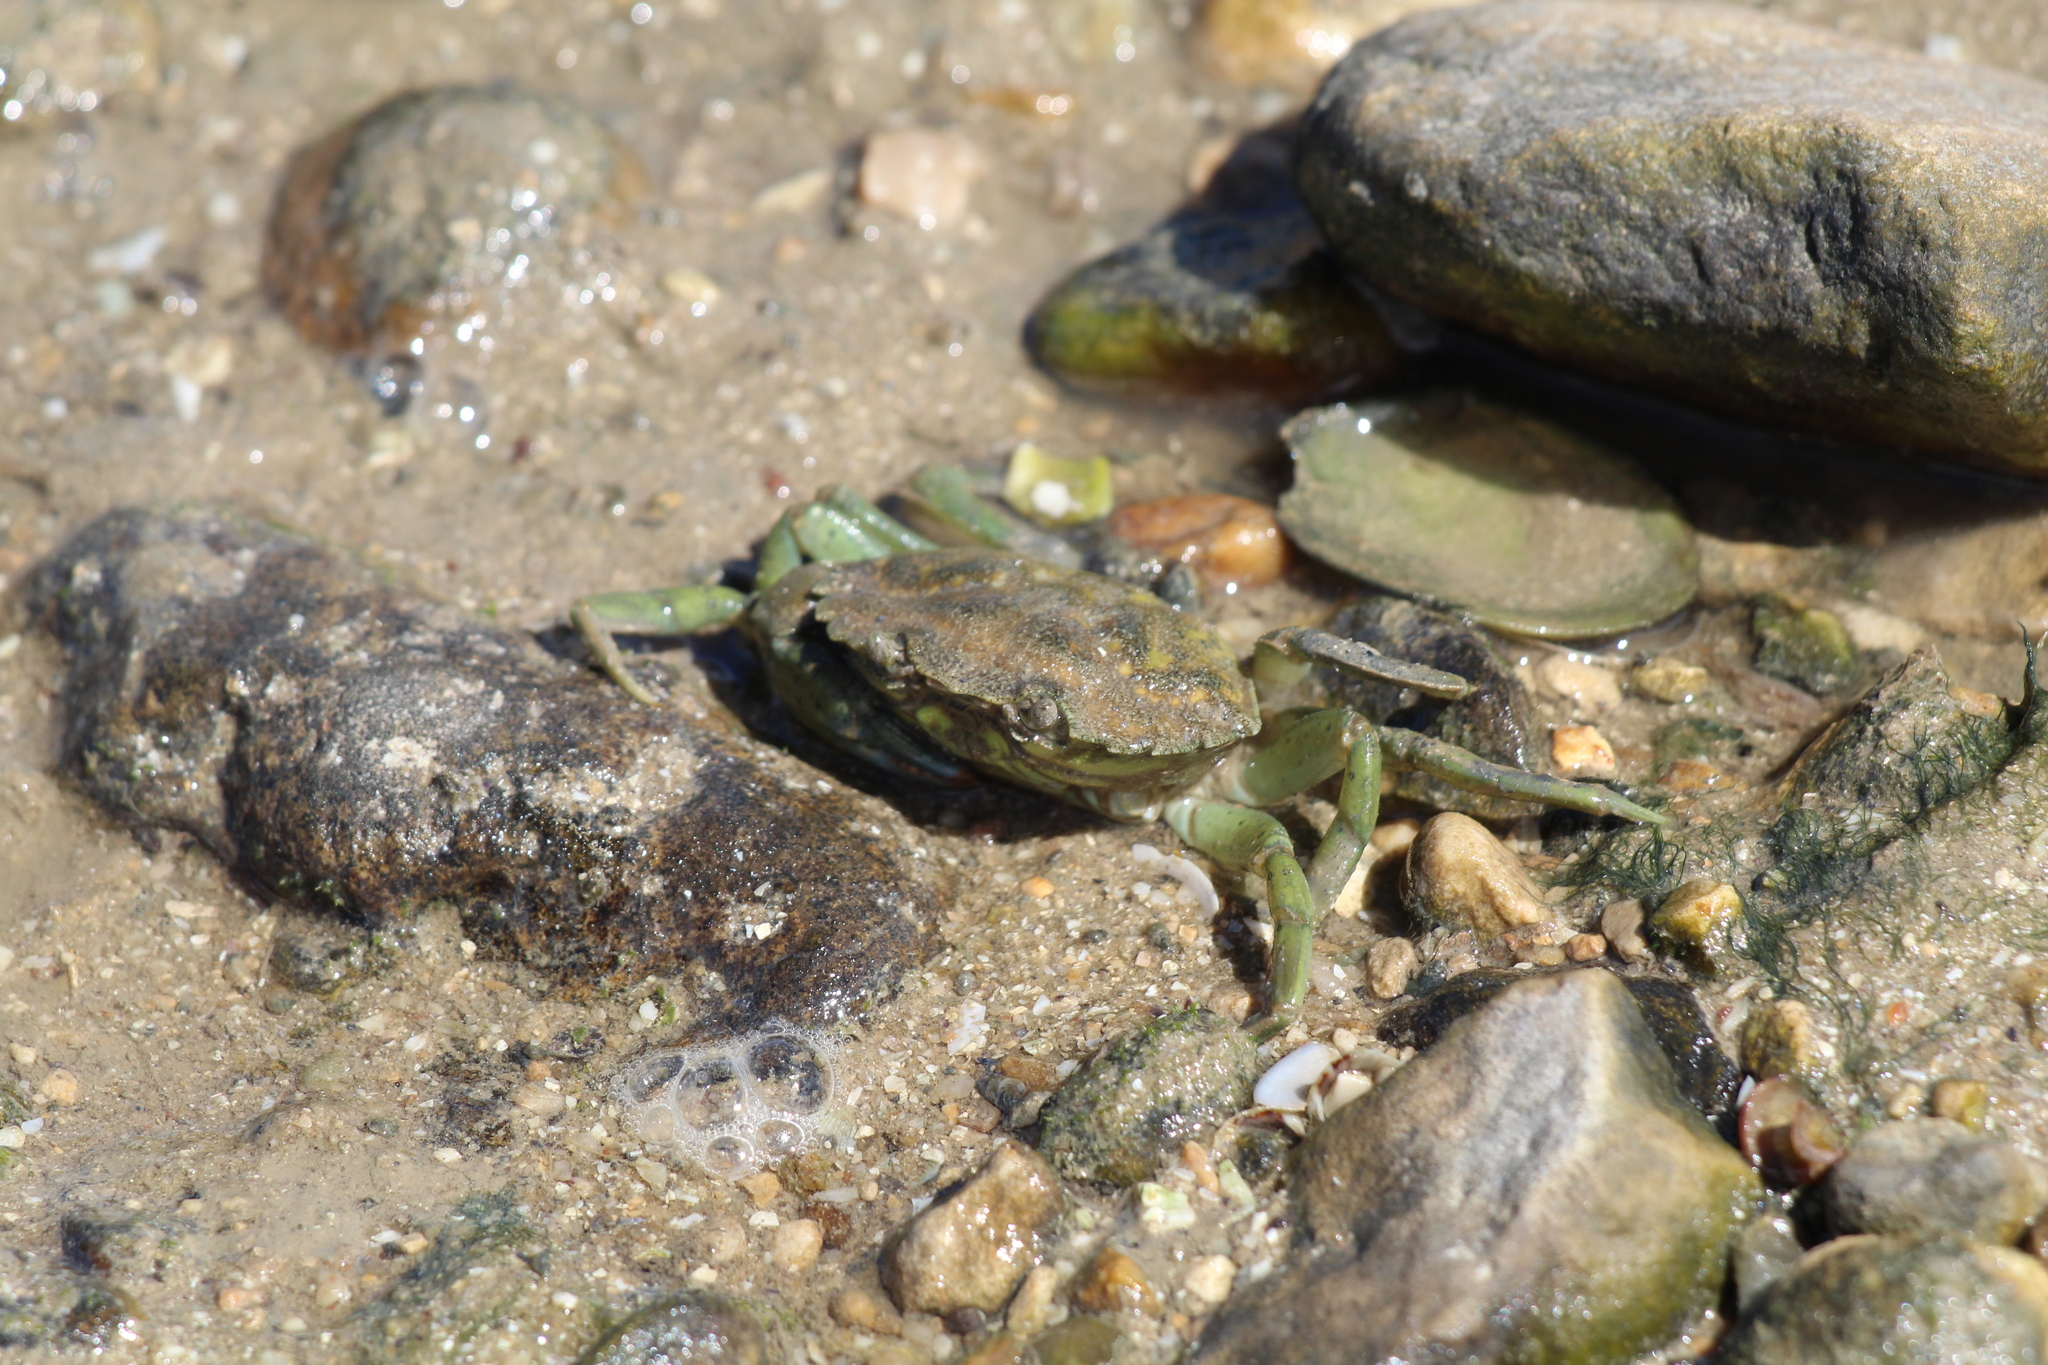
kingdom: Animalia
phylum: Arthropoda
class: Malacostraca
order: Decapoda
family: Carcinidae
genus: Carcinus
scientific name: Carcinus maenas
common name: European green crab
